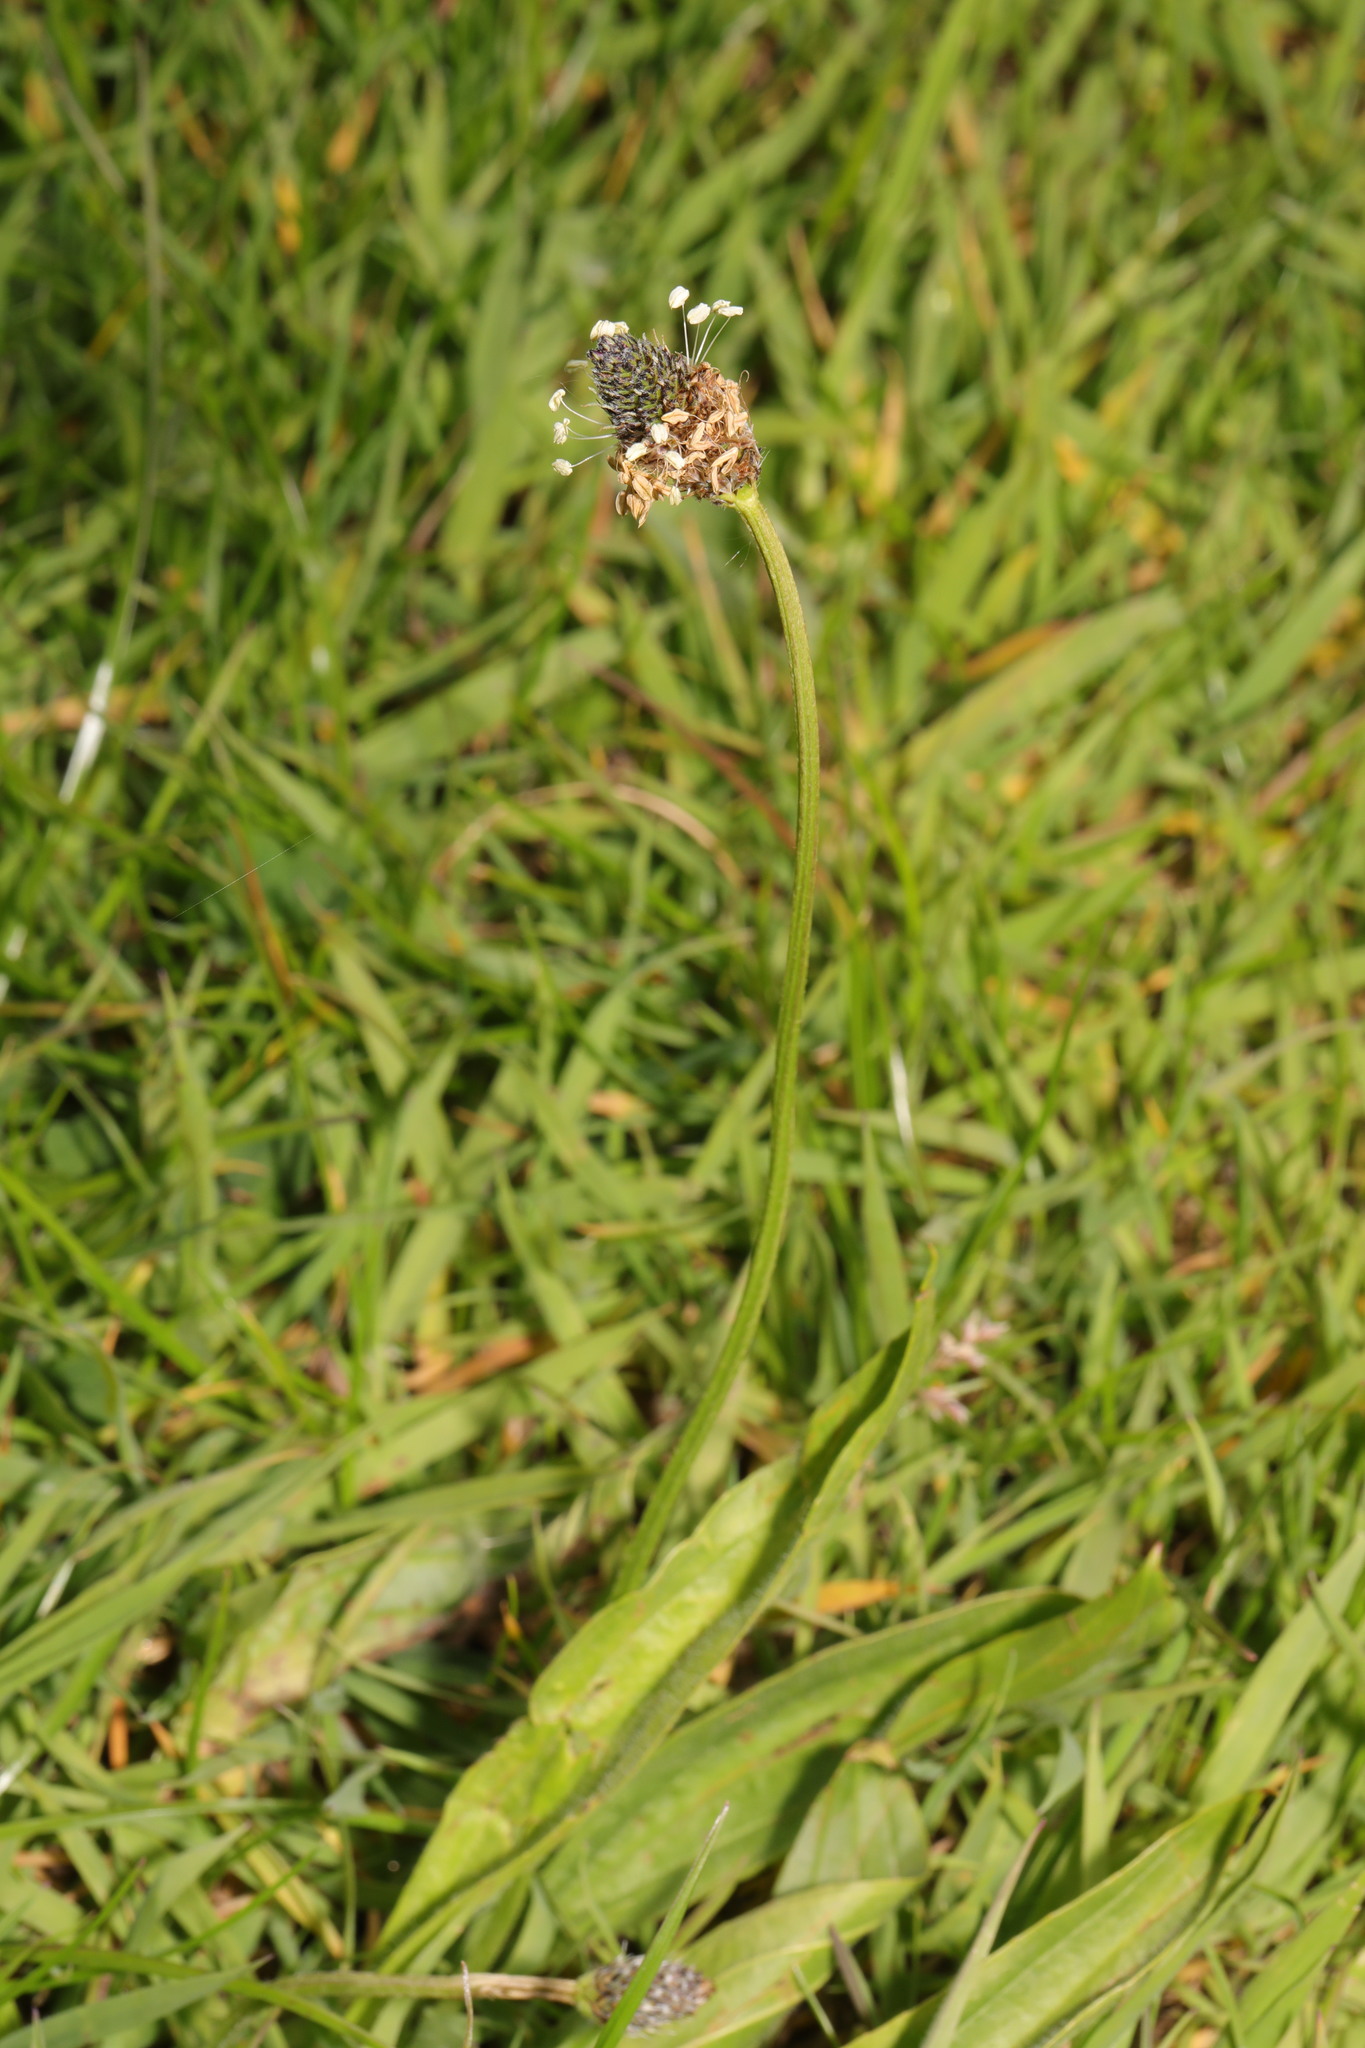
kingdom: Plantae
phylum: Tracheophyta
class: Magnoliopsida
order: Lamiales
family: Plantaginaceae
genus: Plantago
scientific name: Plantago lanceolata
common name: Ribwort plantain
